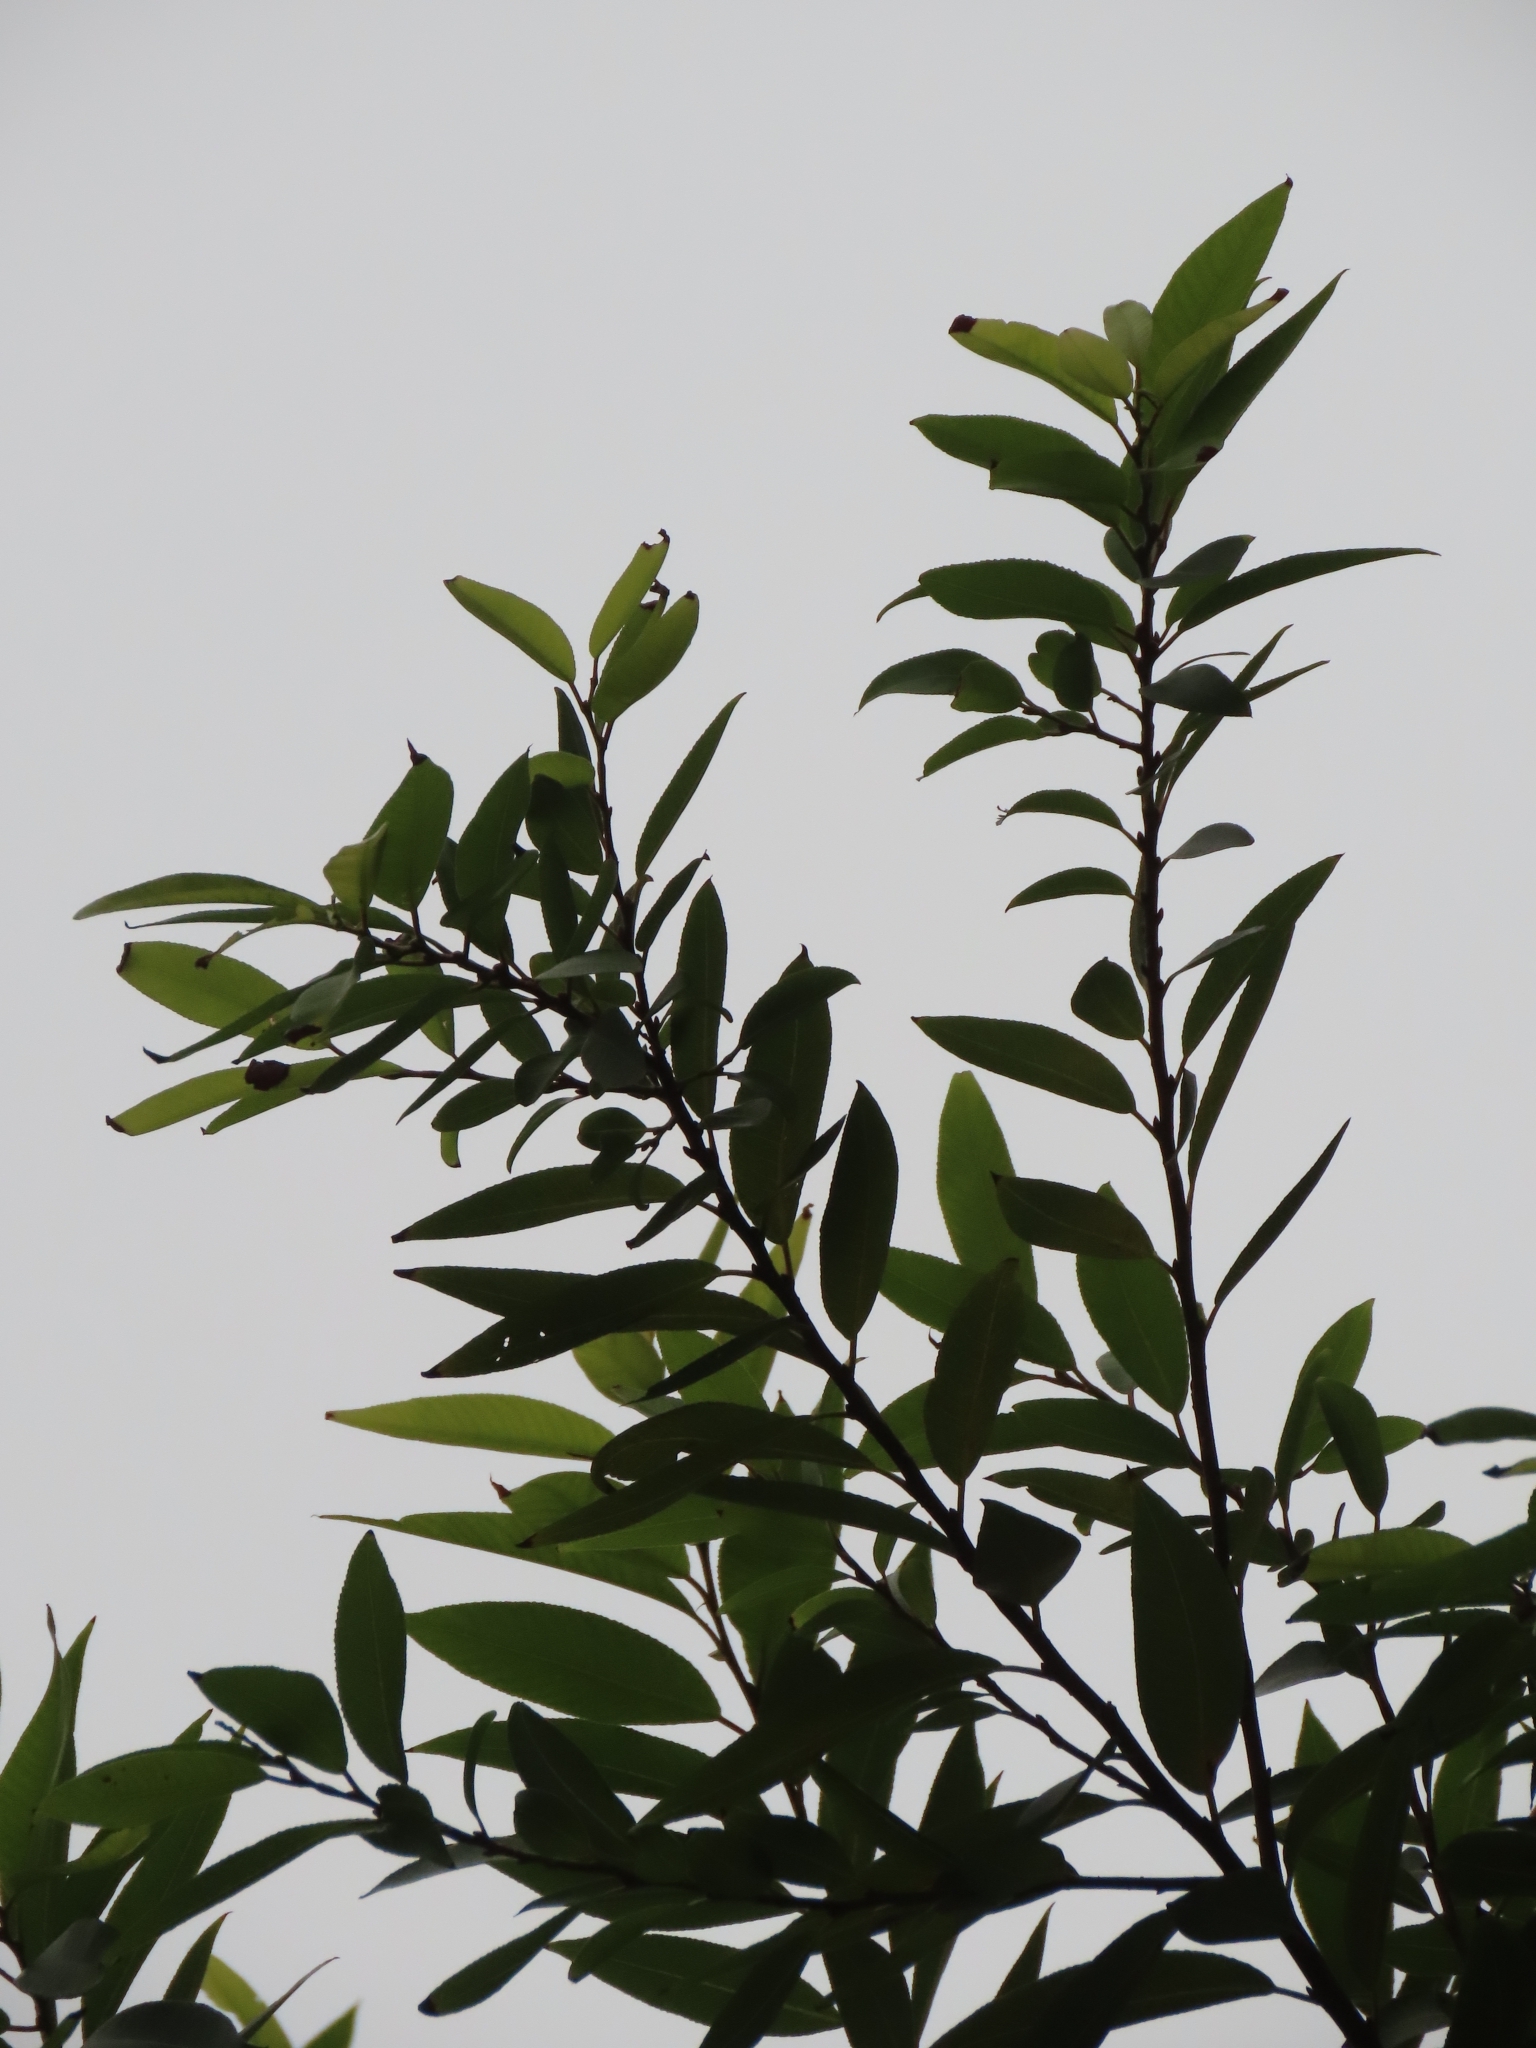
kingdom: Plantae
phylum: Tracheophyta
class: Magnoliopsida
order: Malpighiales
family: Salicaceae
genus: Salix
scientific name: Salix mesnyi
